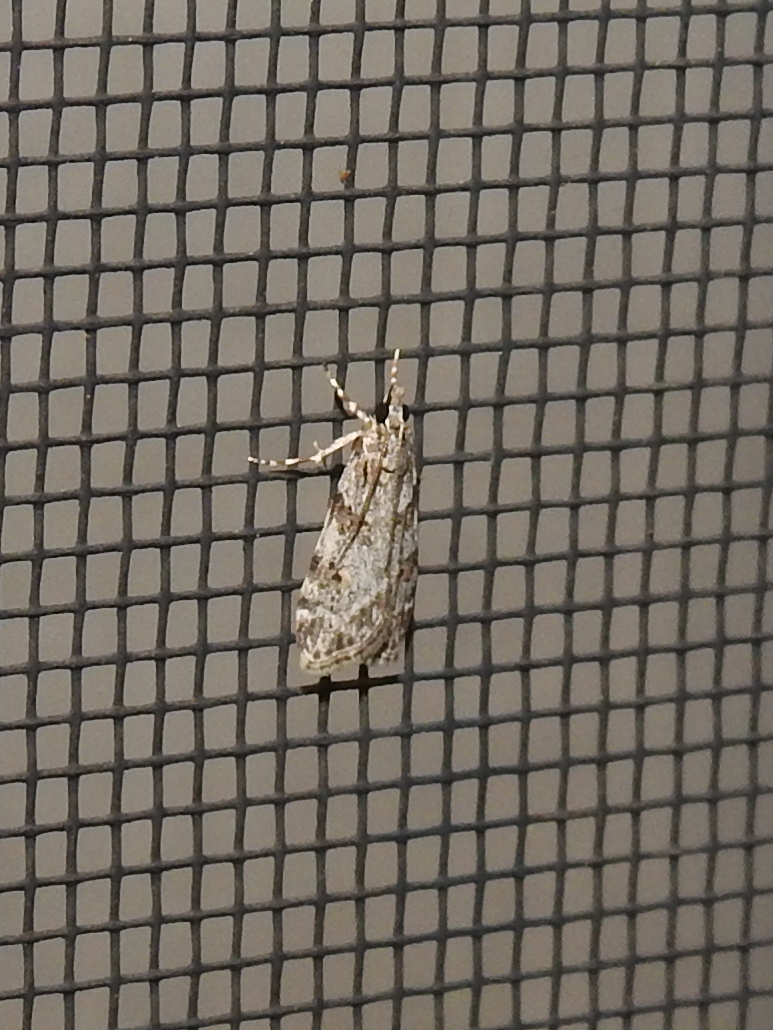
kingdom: Animalia
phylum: Arthropoda
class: Insecta
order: Lepidoptera
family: Crambidae
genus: Scoparia
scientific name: Scoparia biplagialis
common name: Double-striped scoparia moth
